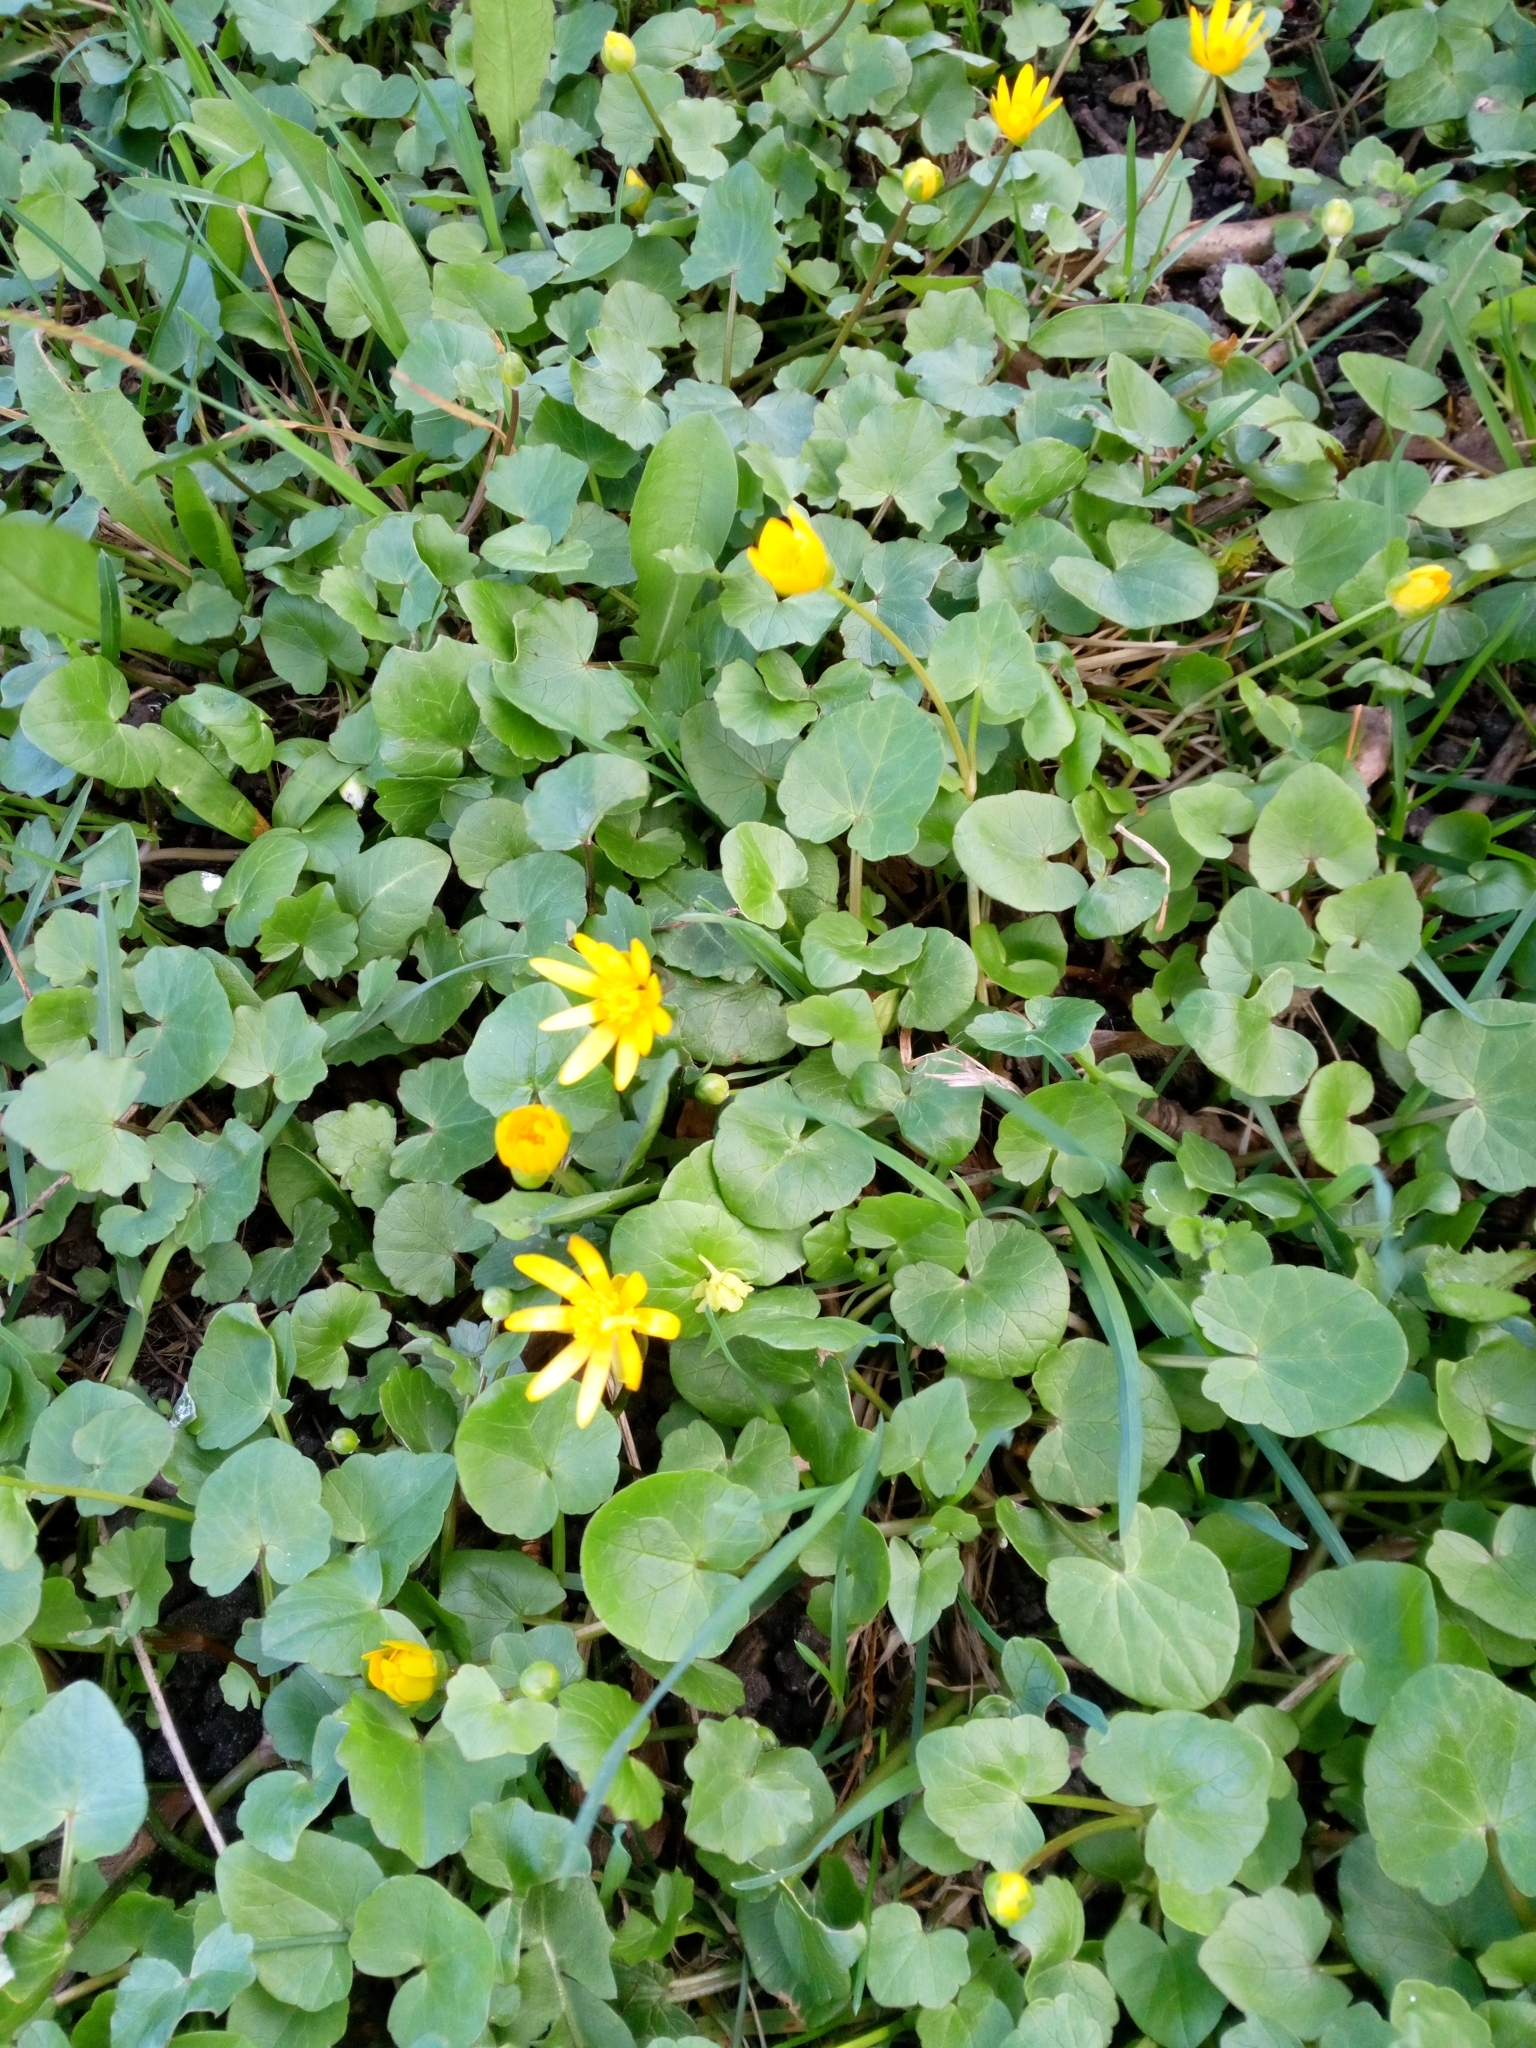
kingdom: Plantae
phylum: Tracheophyta
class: Magnoliopsida
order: Ranunculales
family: Ranunculaceae
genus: Ficaria
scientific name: Ficaria verna
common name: Lesser celandine
